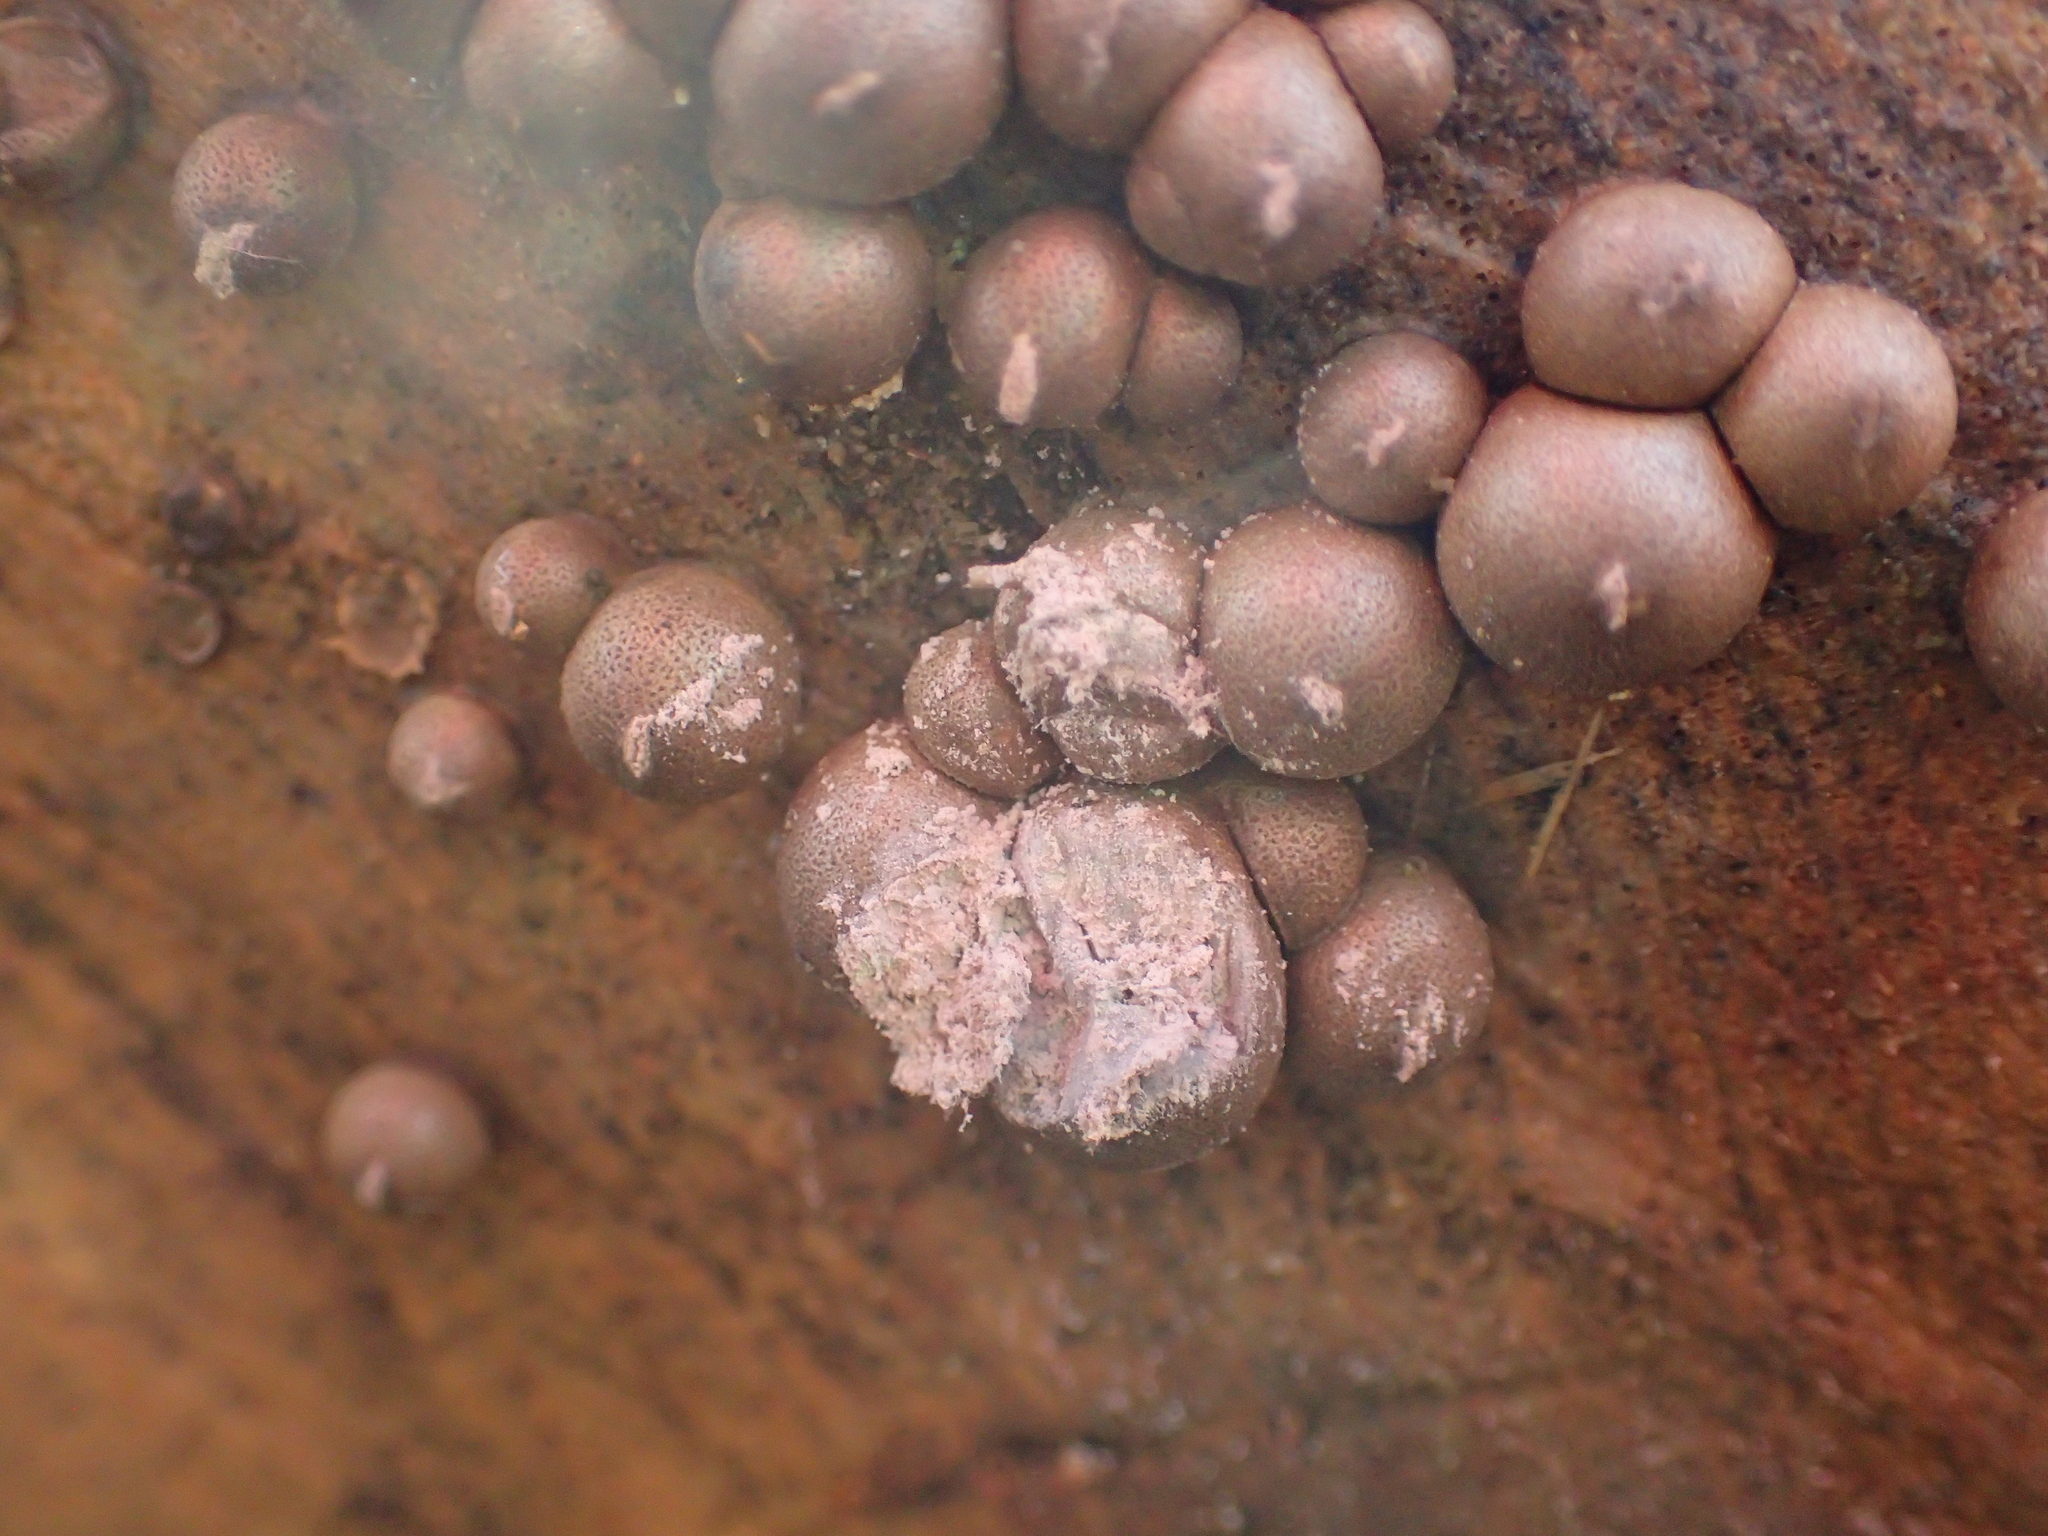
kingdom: Protozoa
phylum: Mycetozoa
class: Myxomycetes
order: Cribrariales
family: Tubiferaceae
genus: Lycogala
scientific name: Lycogala epidendrum
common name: Wolf's milk
